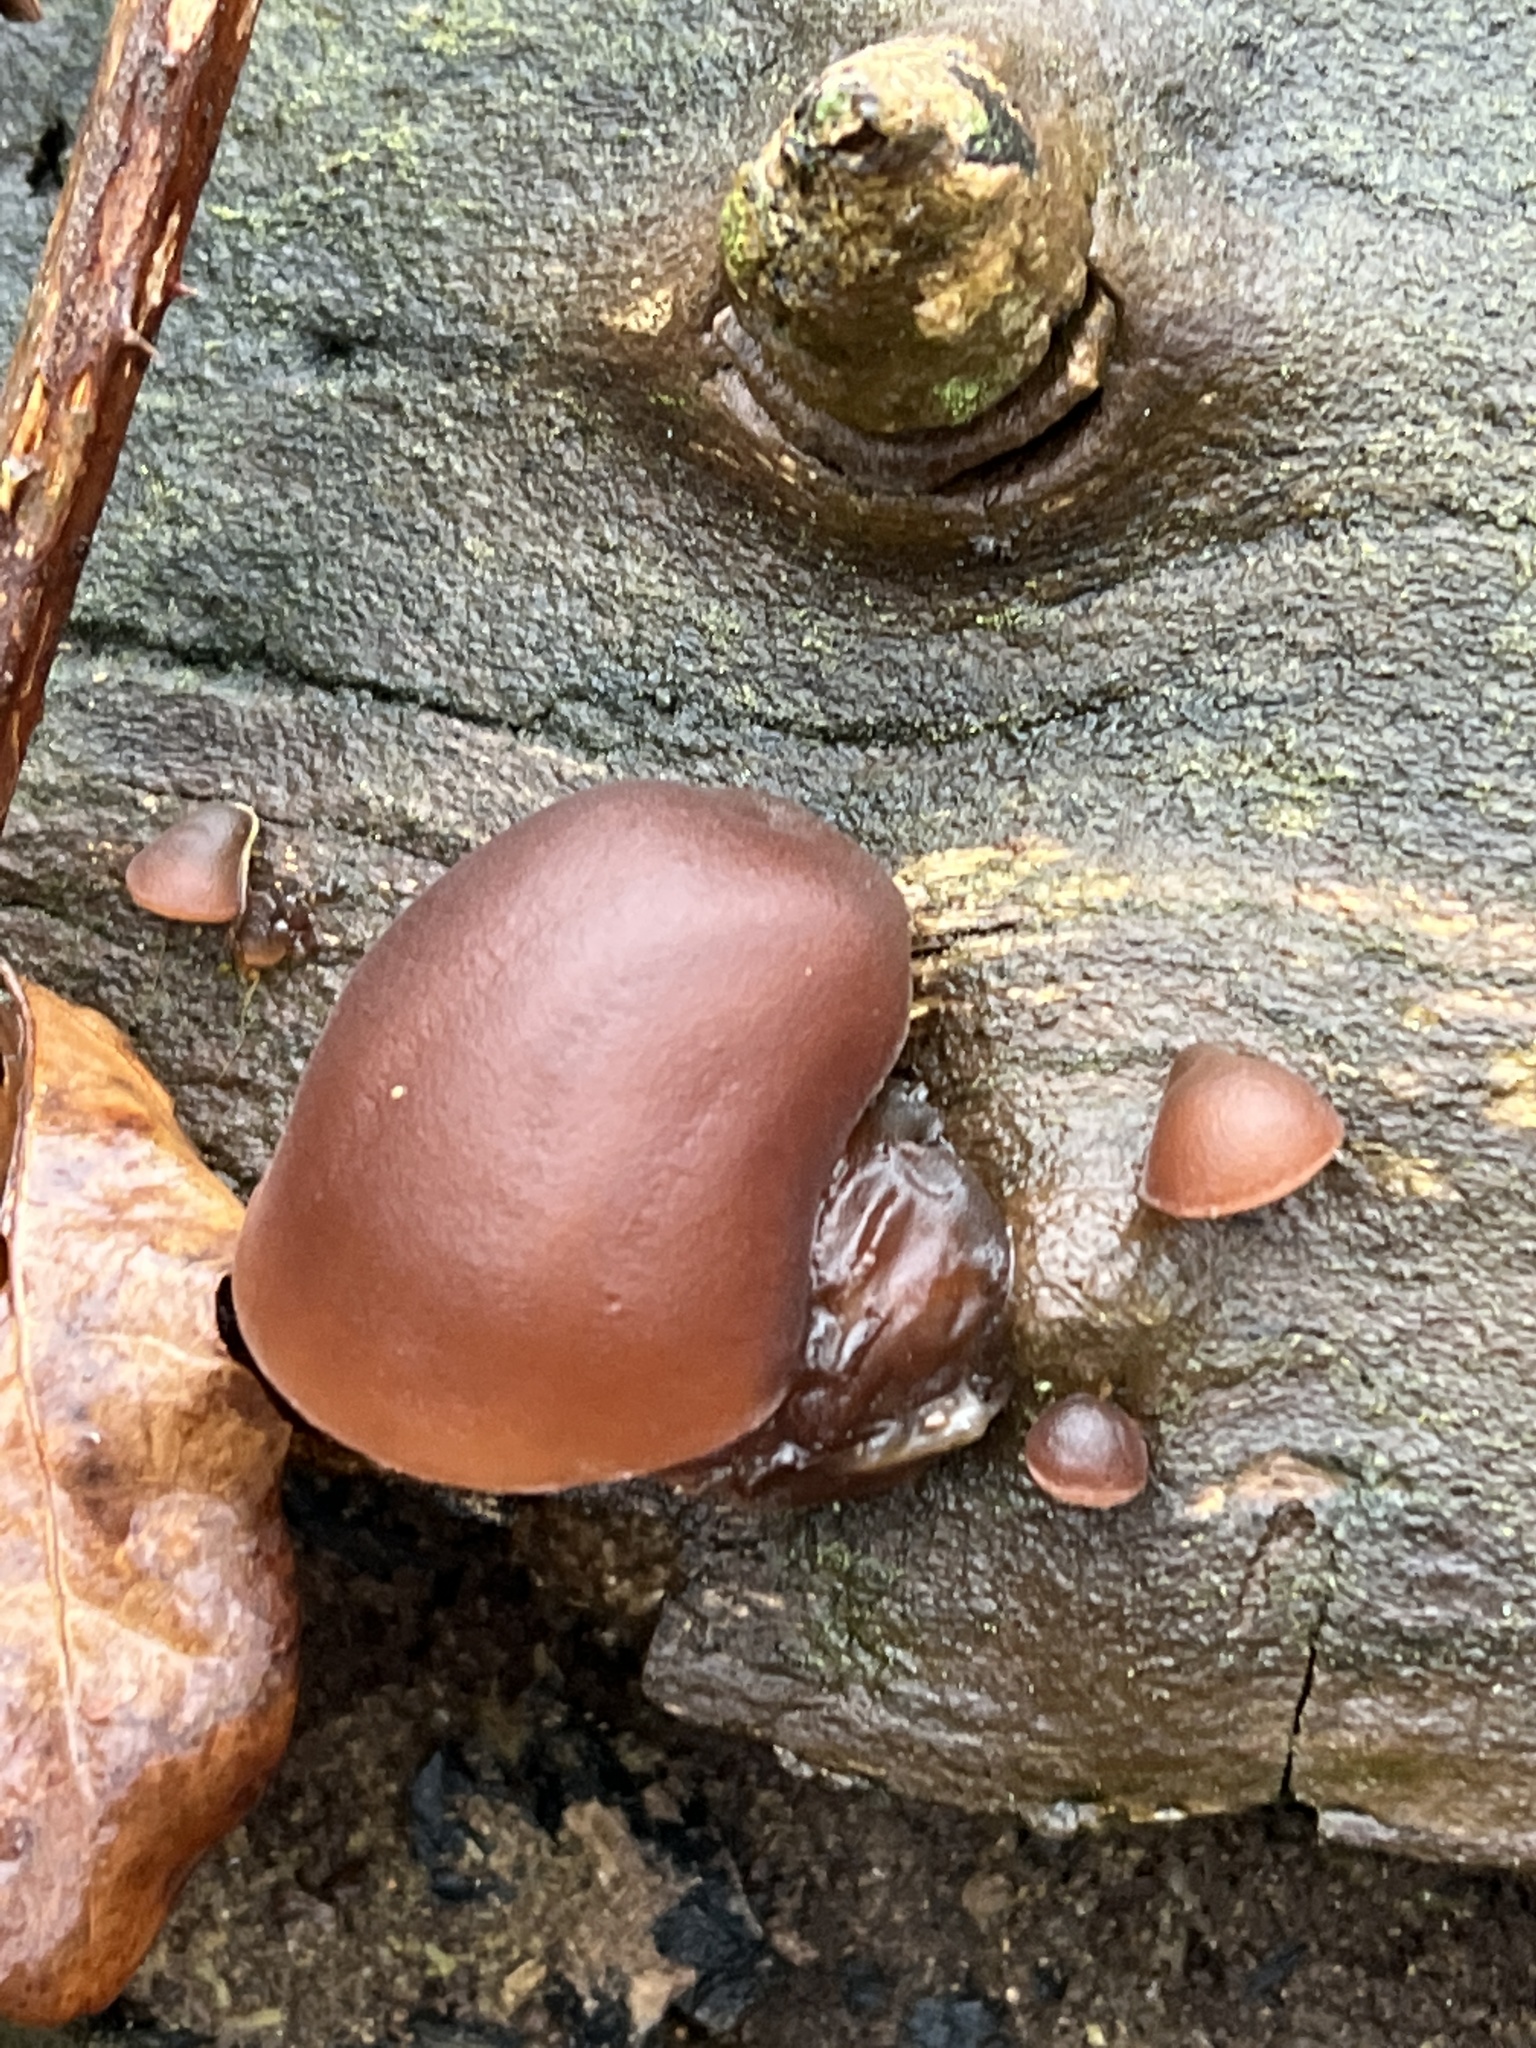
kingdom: Fungi
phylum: Basidiomycota
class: Agaricomycetes
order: Auriculariales
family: Auriculariaceae
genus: Auricularia
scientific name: Auricularia auricula-judae
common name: Jelly ear
